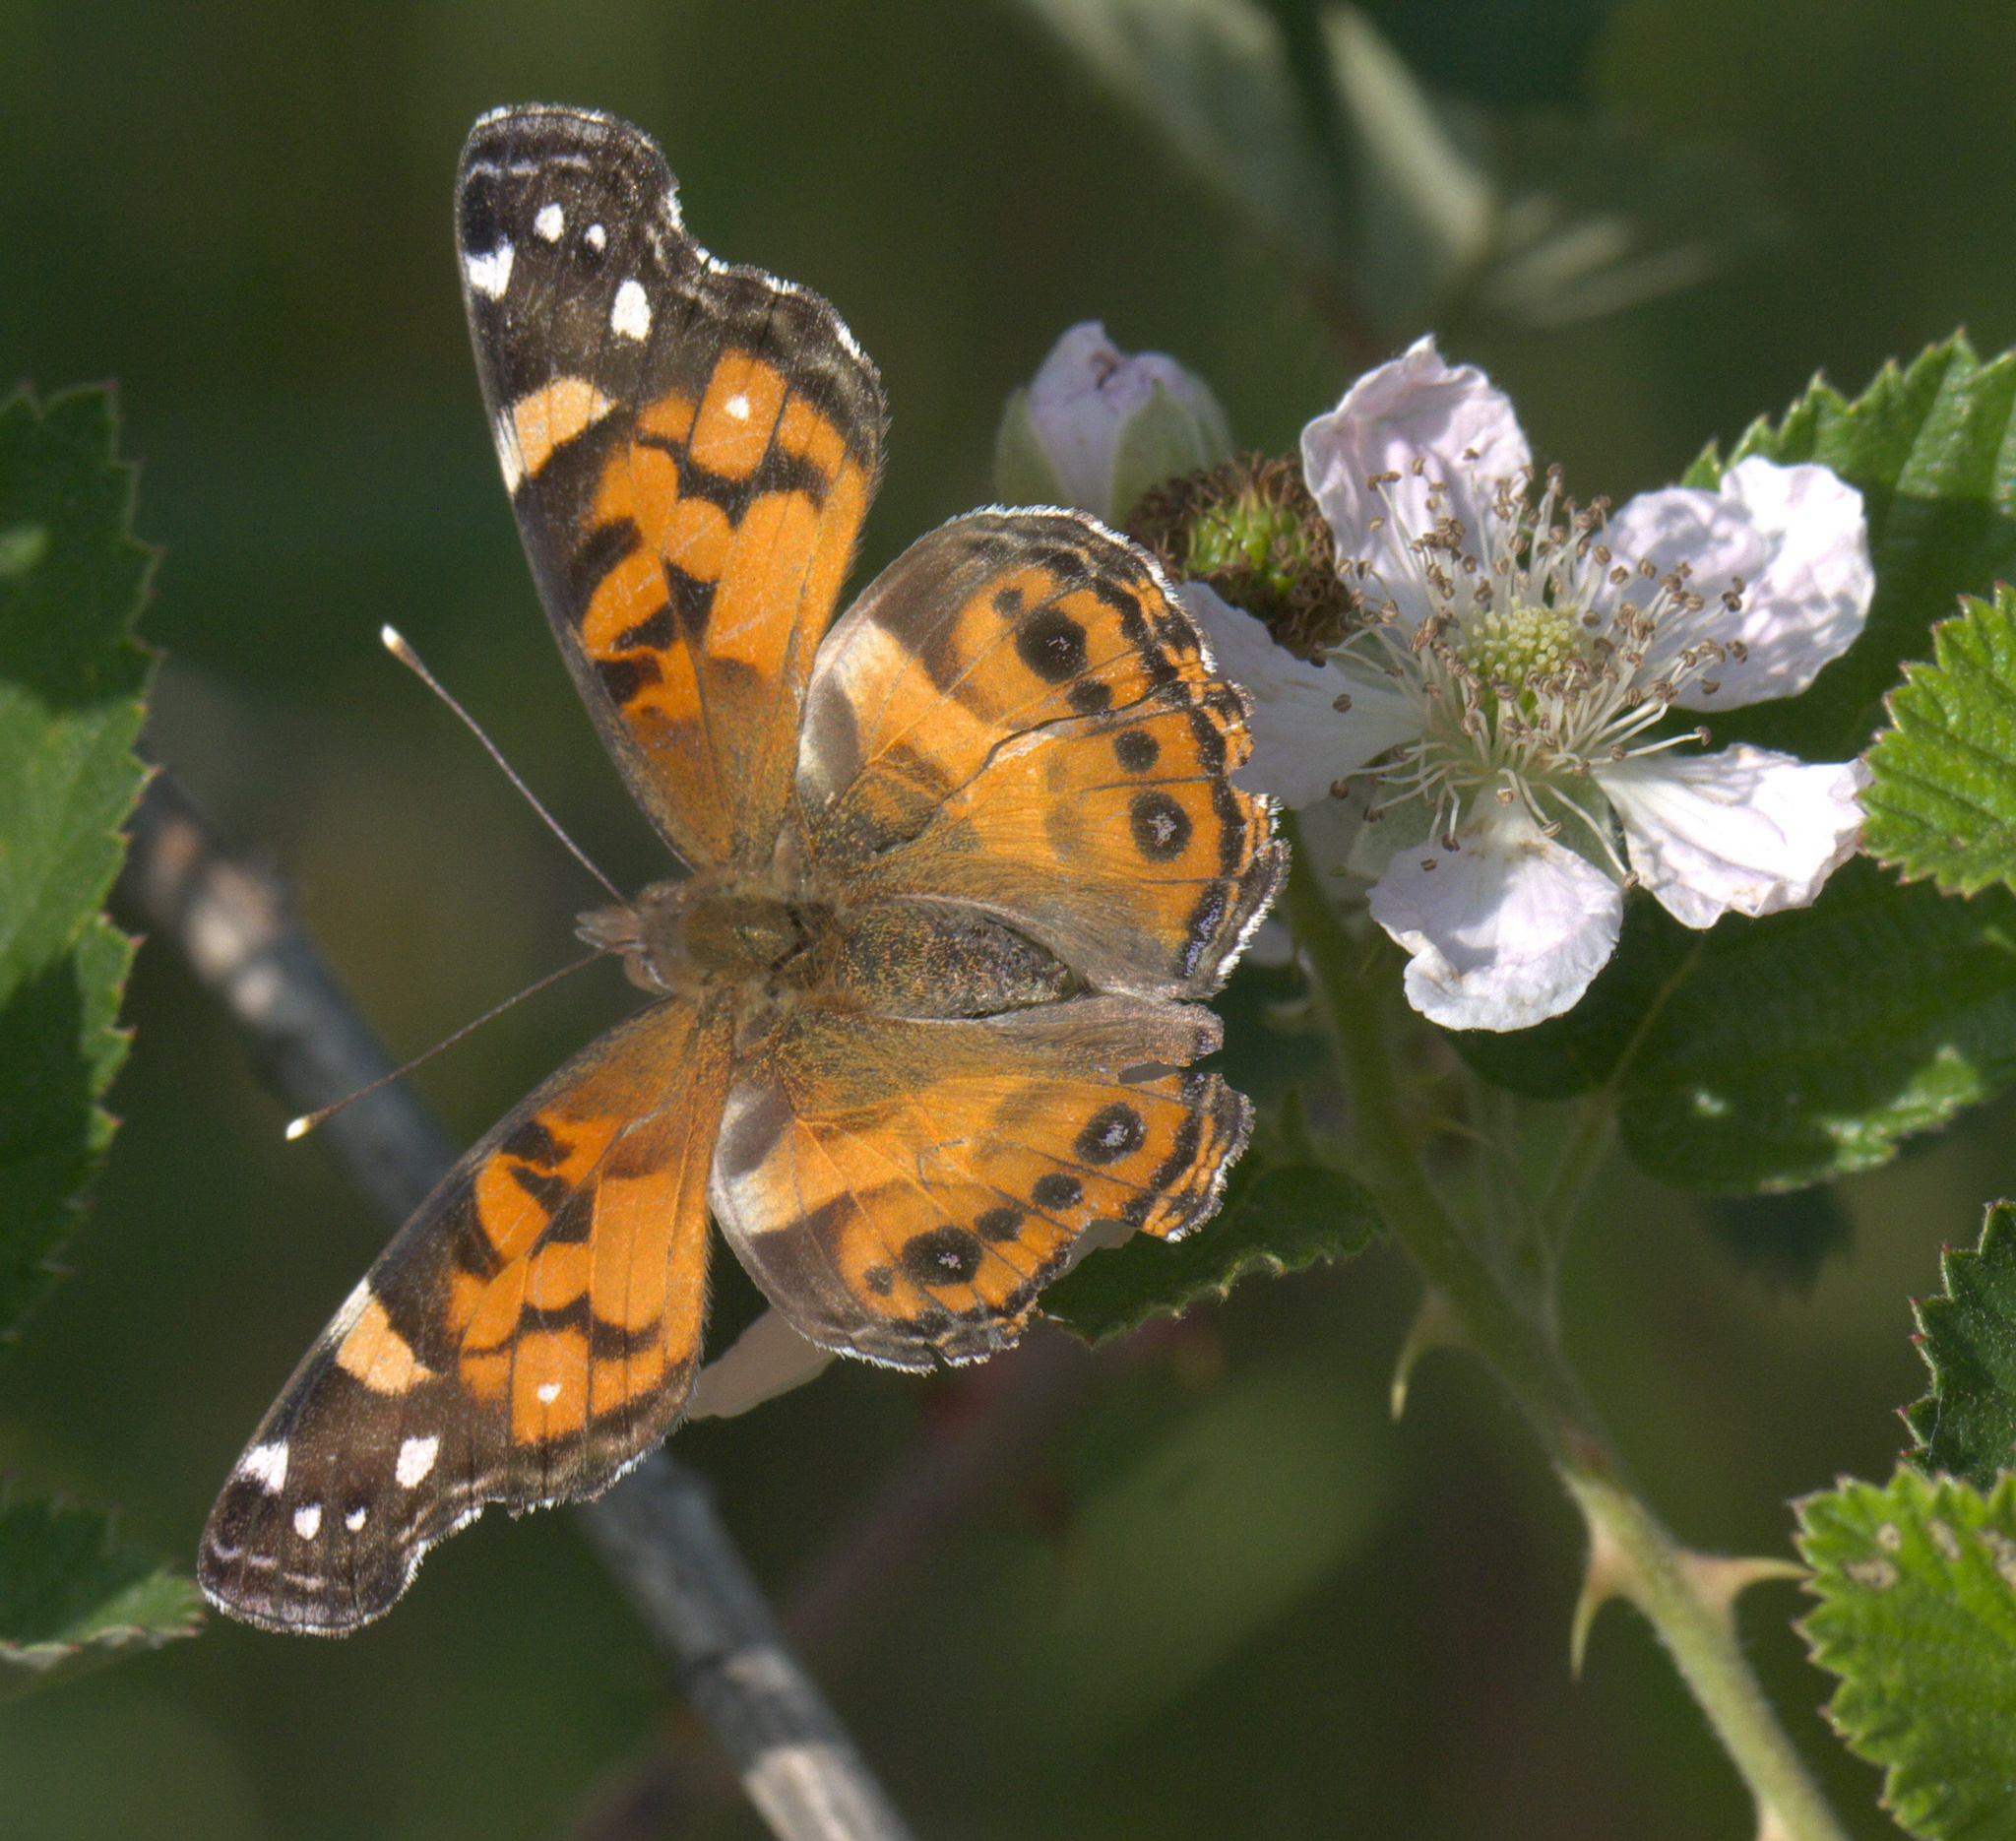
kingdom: Animalia
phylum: Arthropoda
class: Insecta
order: Lepidoptera
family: Nymphalidae
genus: Vanessa
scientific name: Vanessa virginiensis
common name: American lady
